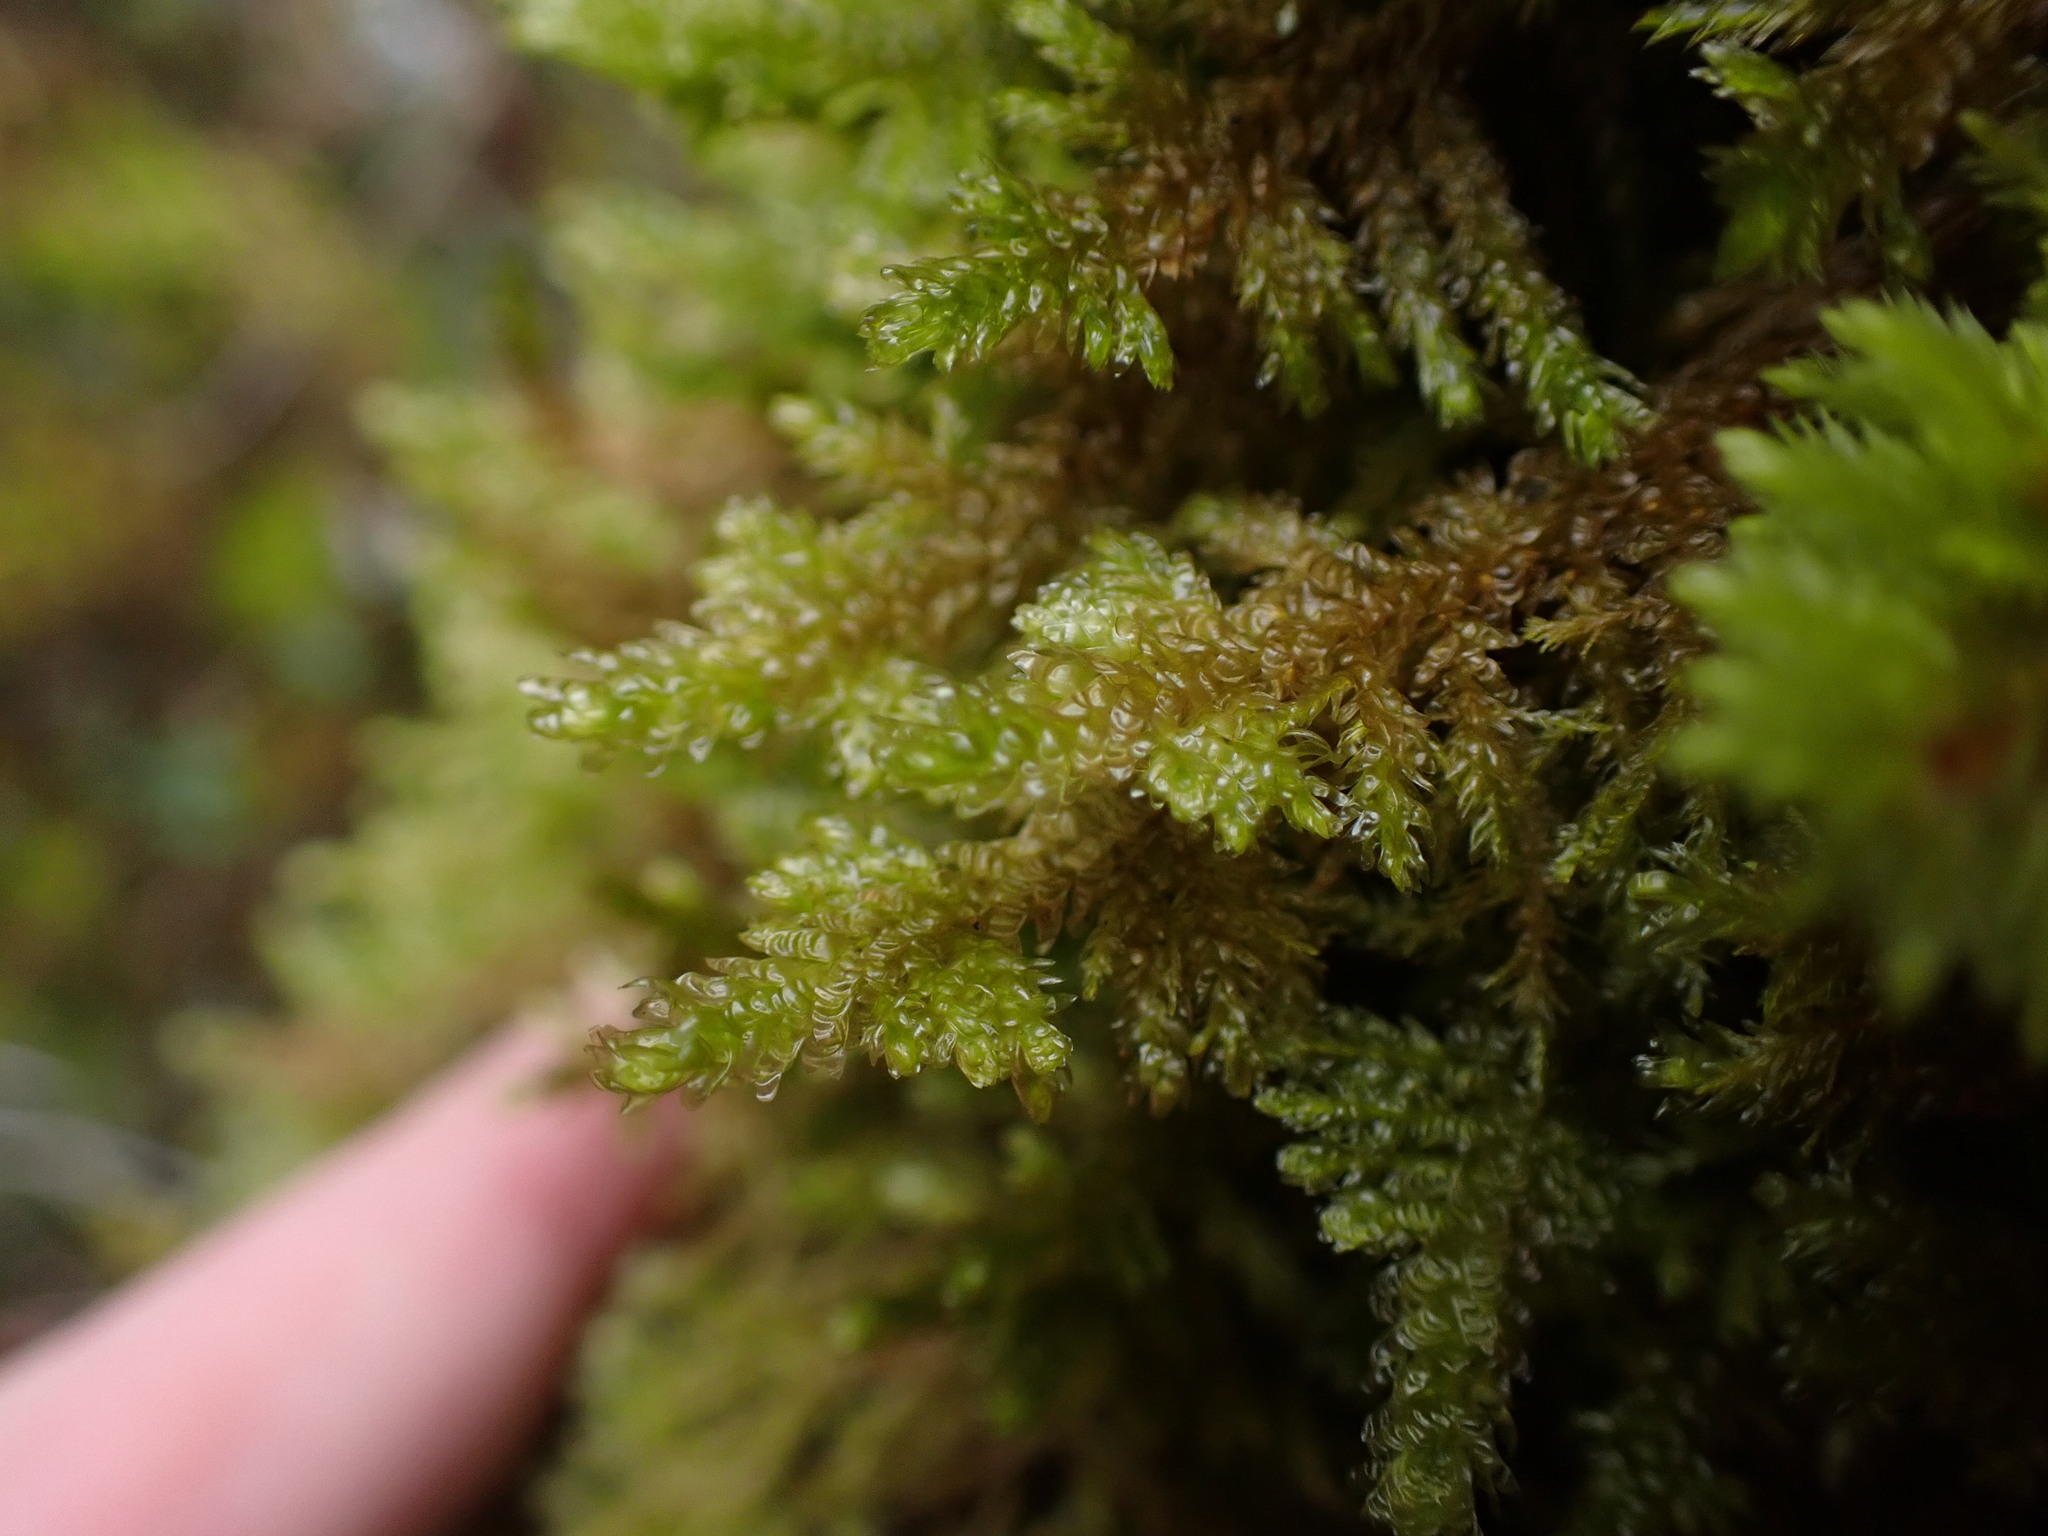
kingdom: Plantae
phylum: Bryophyta
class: Bryopsida
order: Hypnales
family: Neckeraceae
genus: Metaneckera
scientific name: Metaneckera menziesii
